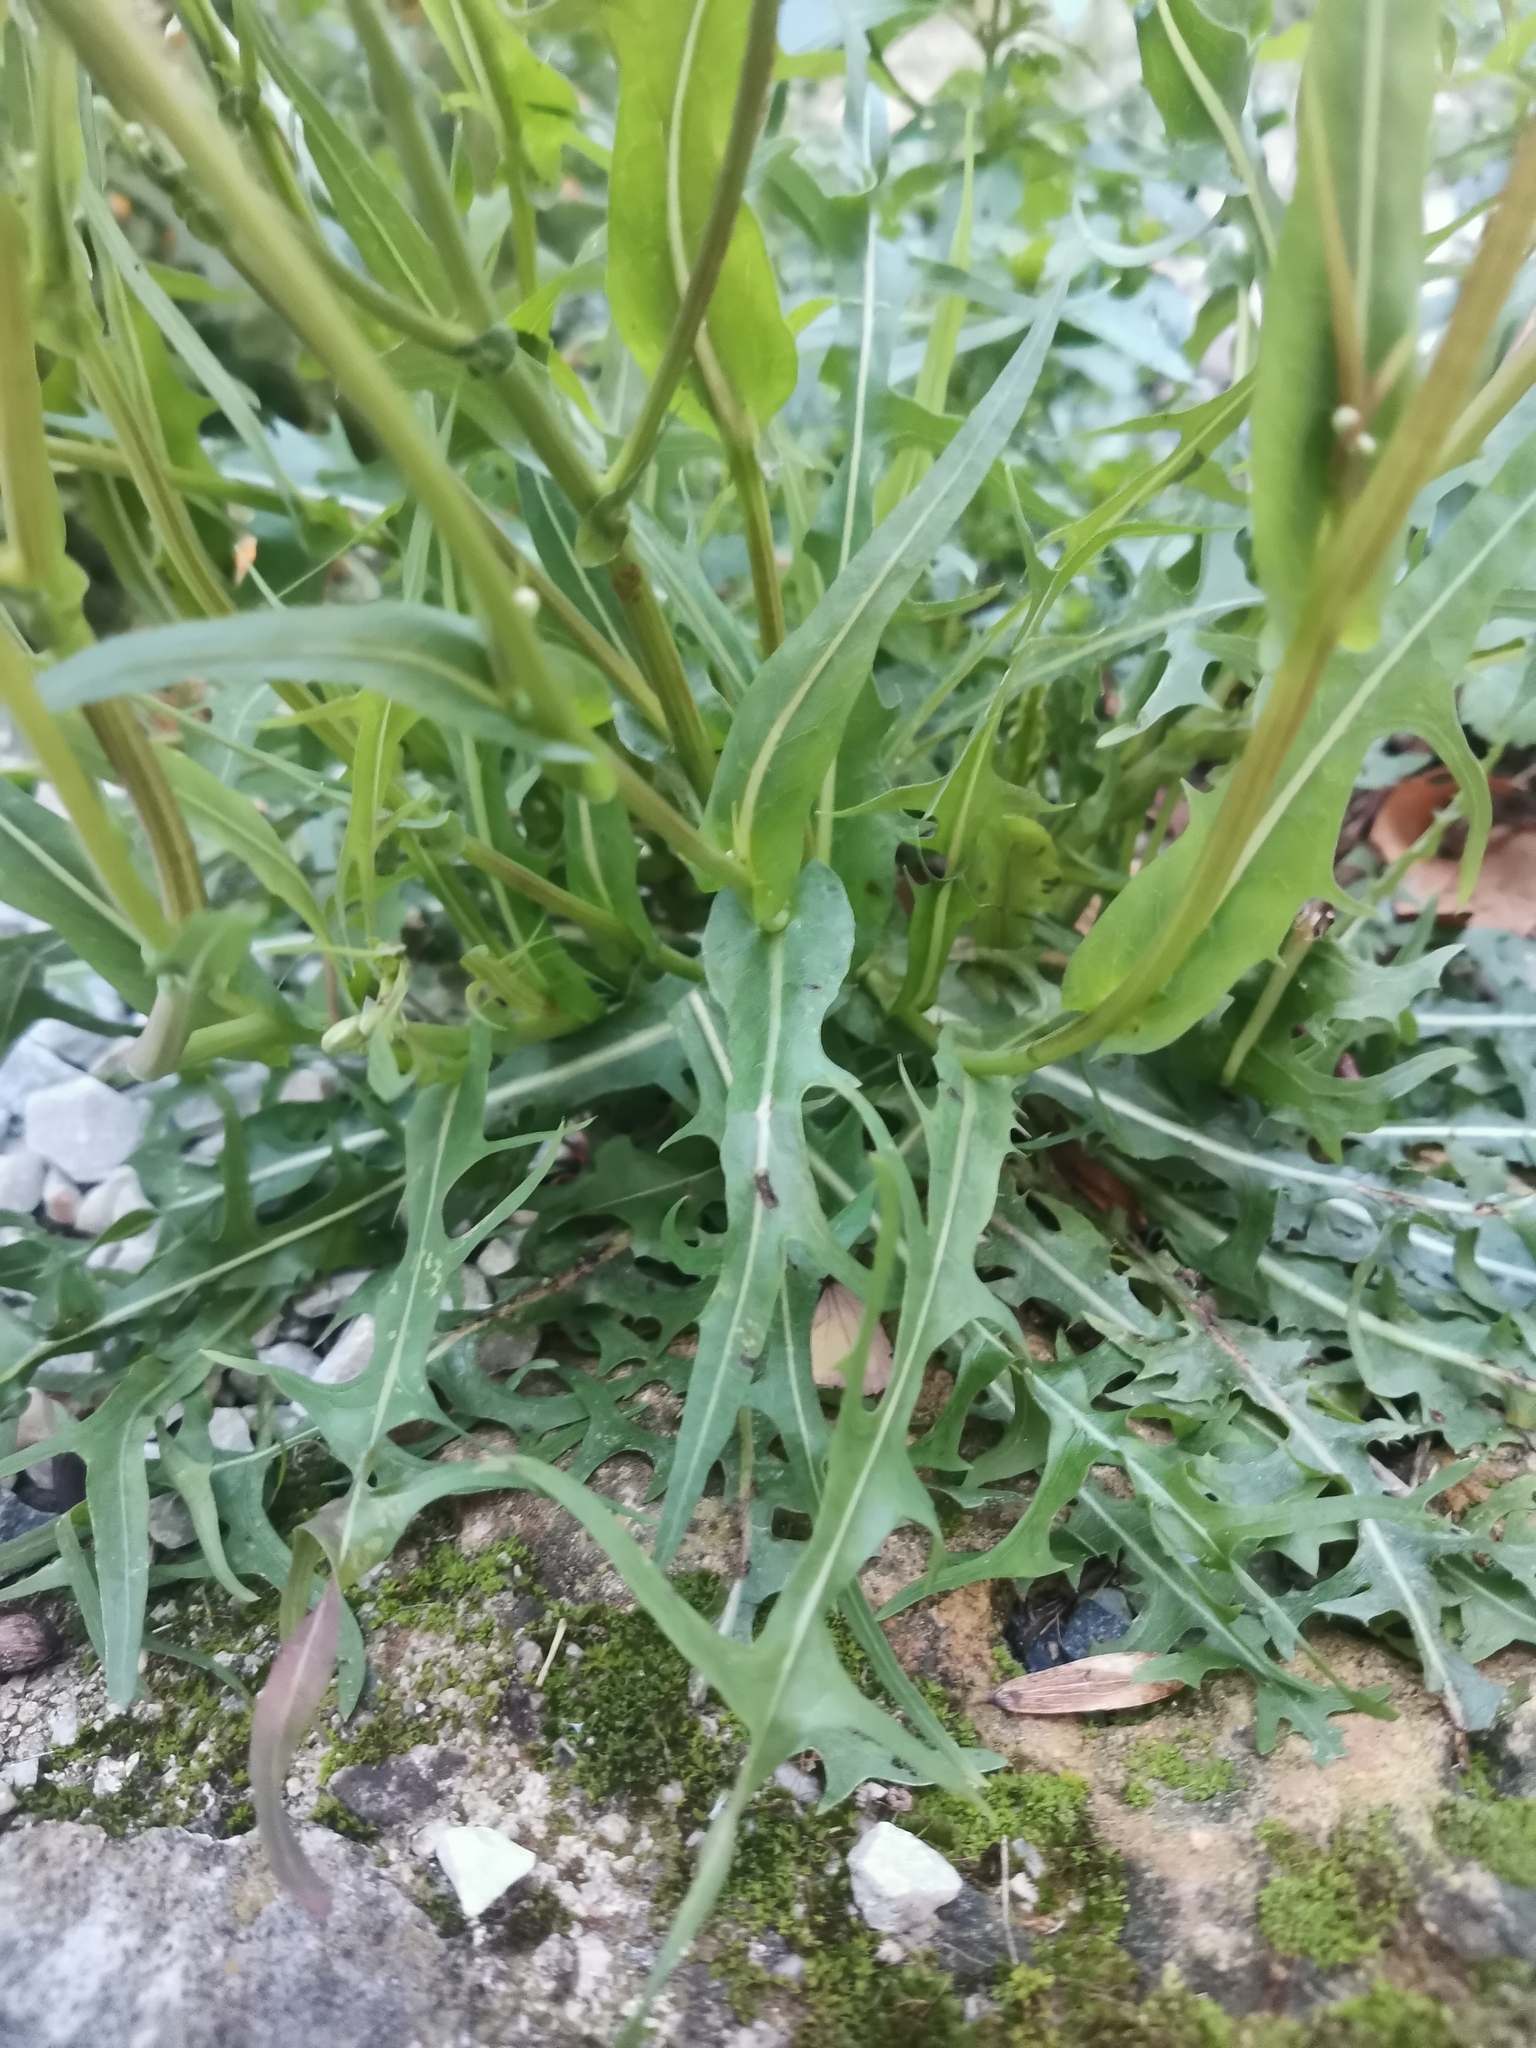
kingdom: Plantae
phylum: Tracheophyta
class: Magnoliopsida
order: Asterales
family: Asteraceae
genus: Lactuca
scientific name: Lactuca perennis
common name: Mountain lettuce
